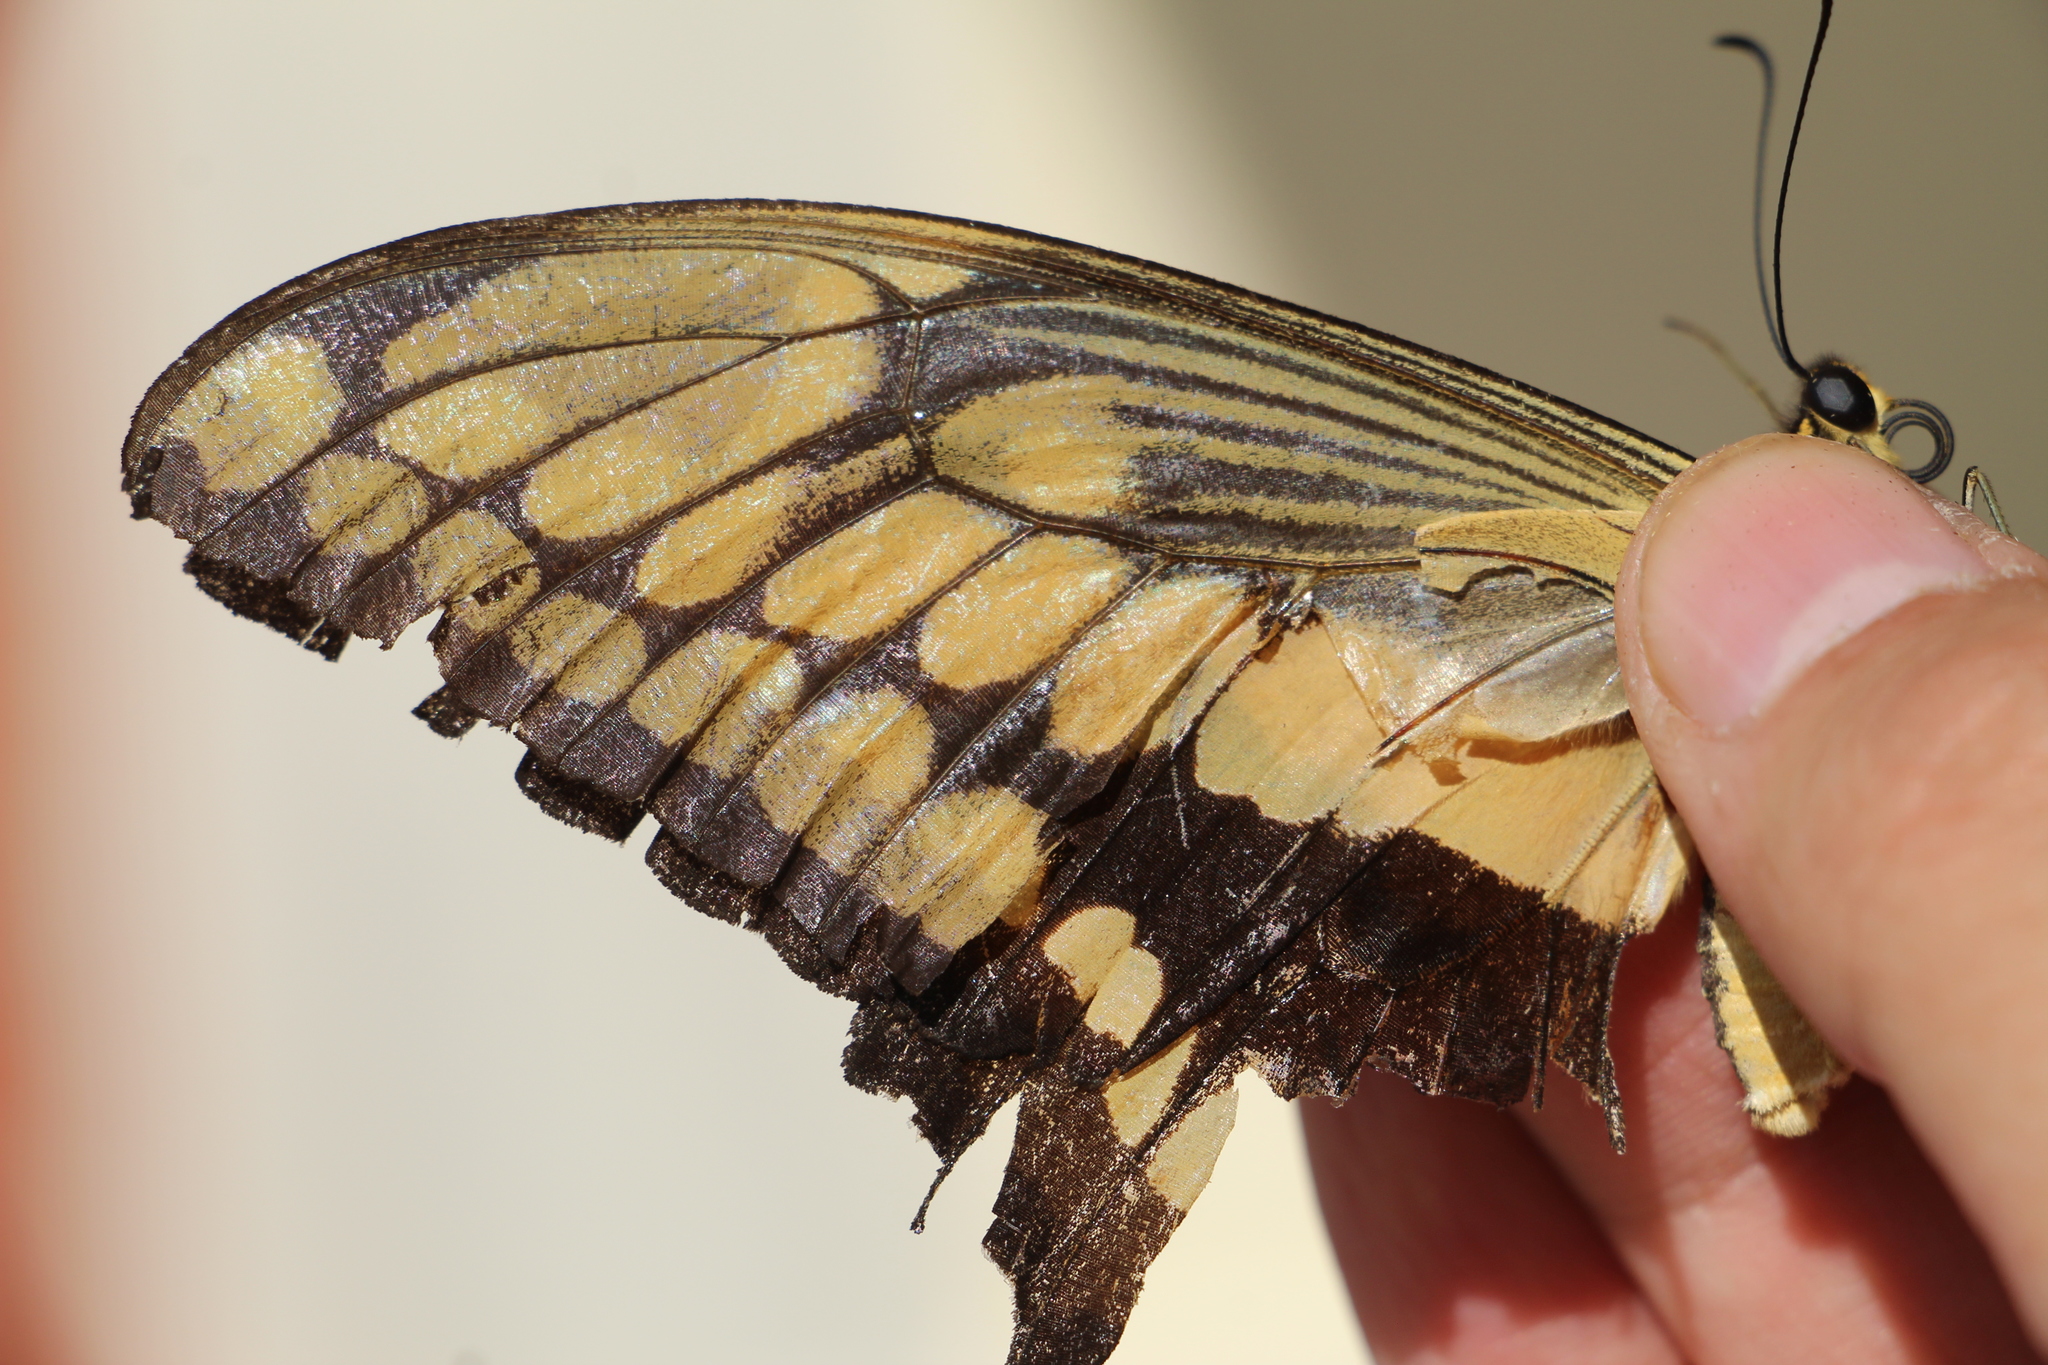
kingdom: Animalia
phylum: Arthropoda
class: Insecta
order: Lepidoptera
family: Papilionidae
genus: Papilio
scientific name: Papilio thoas
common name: King swallowtail
